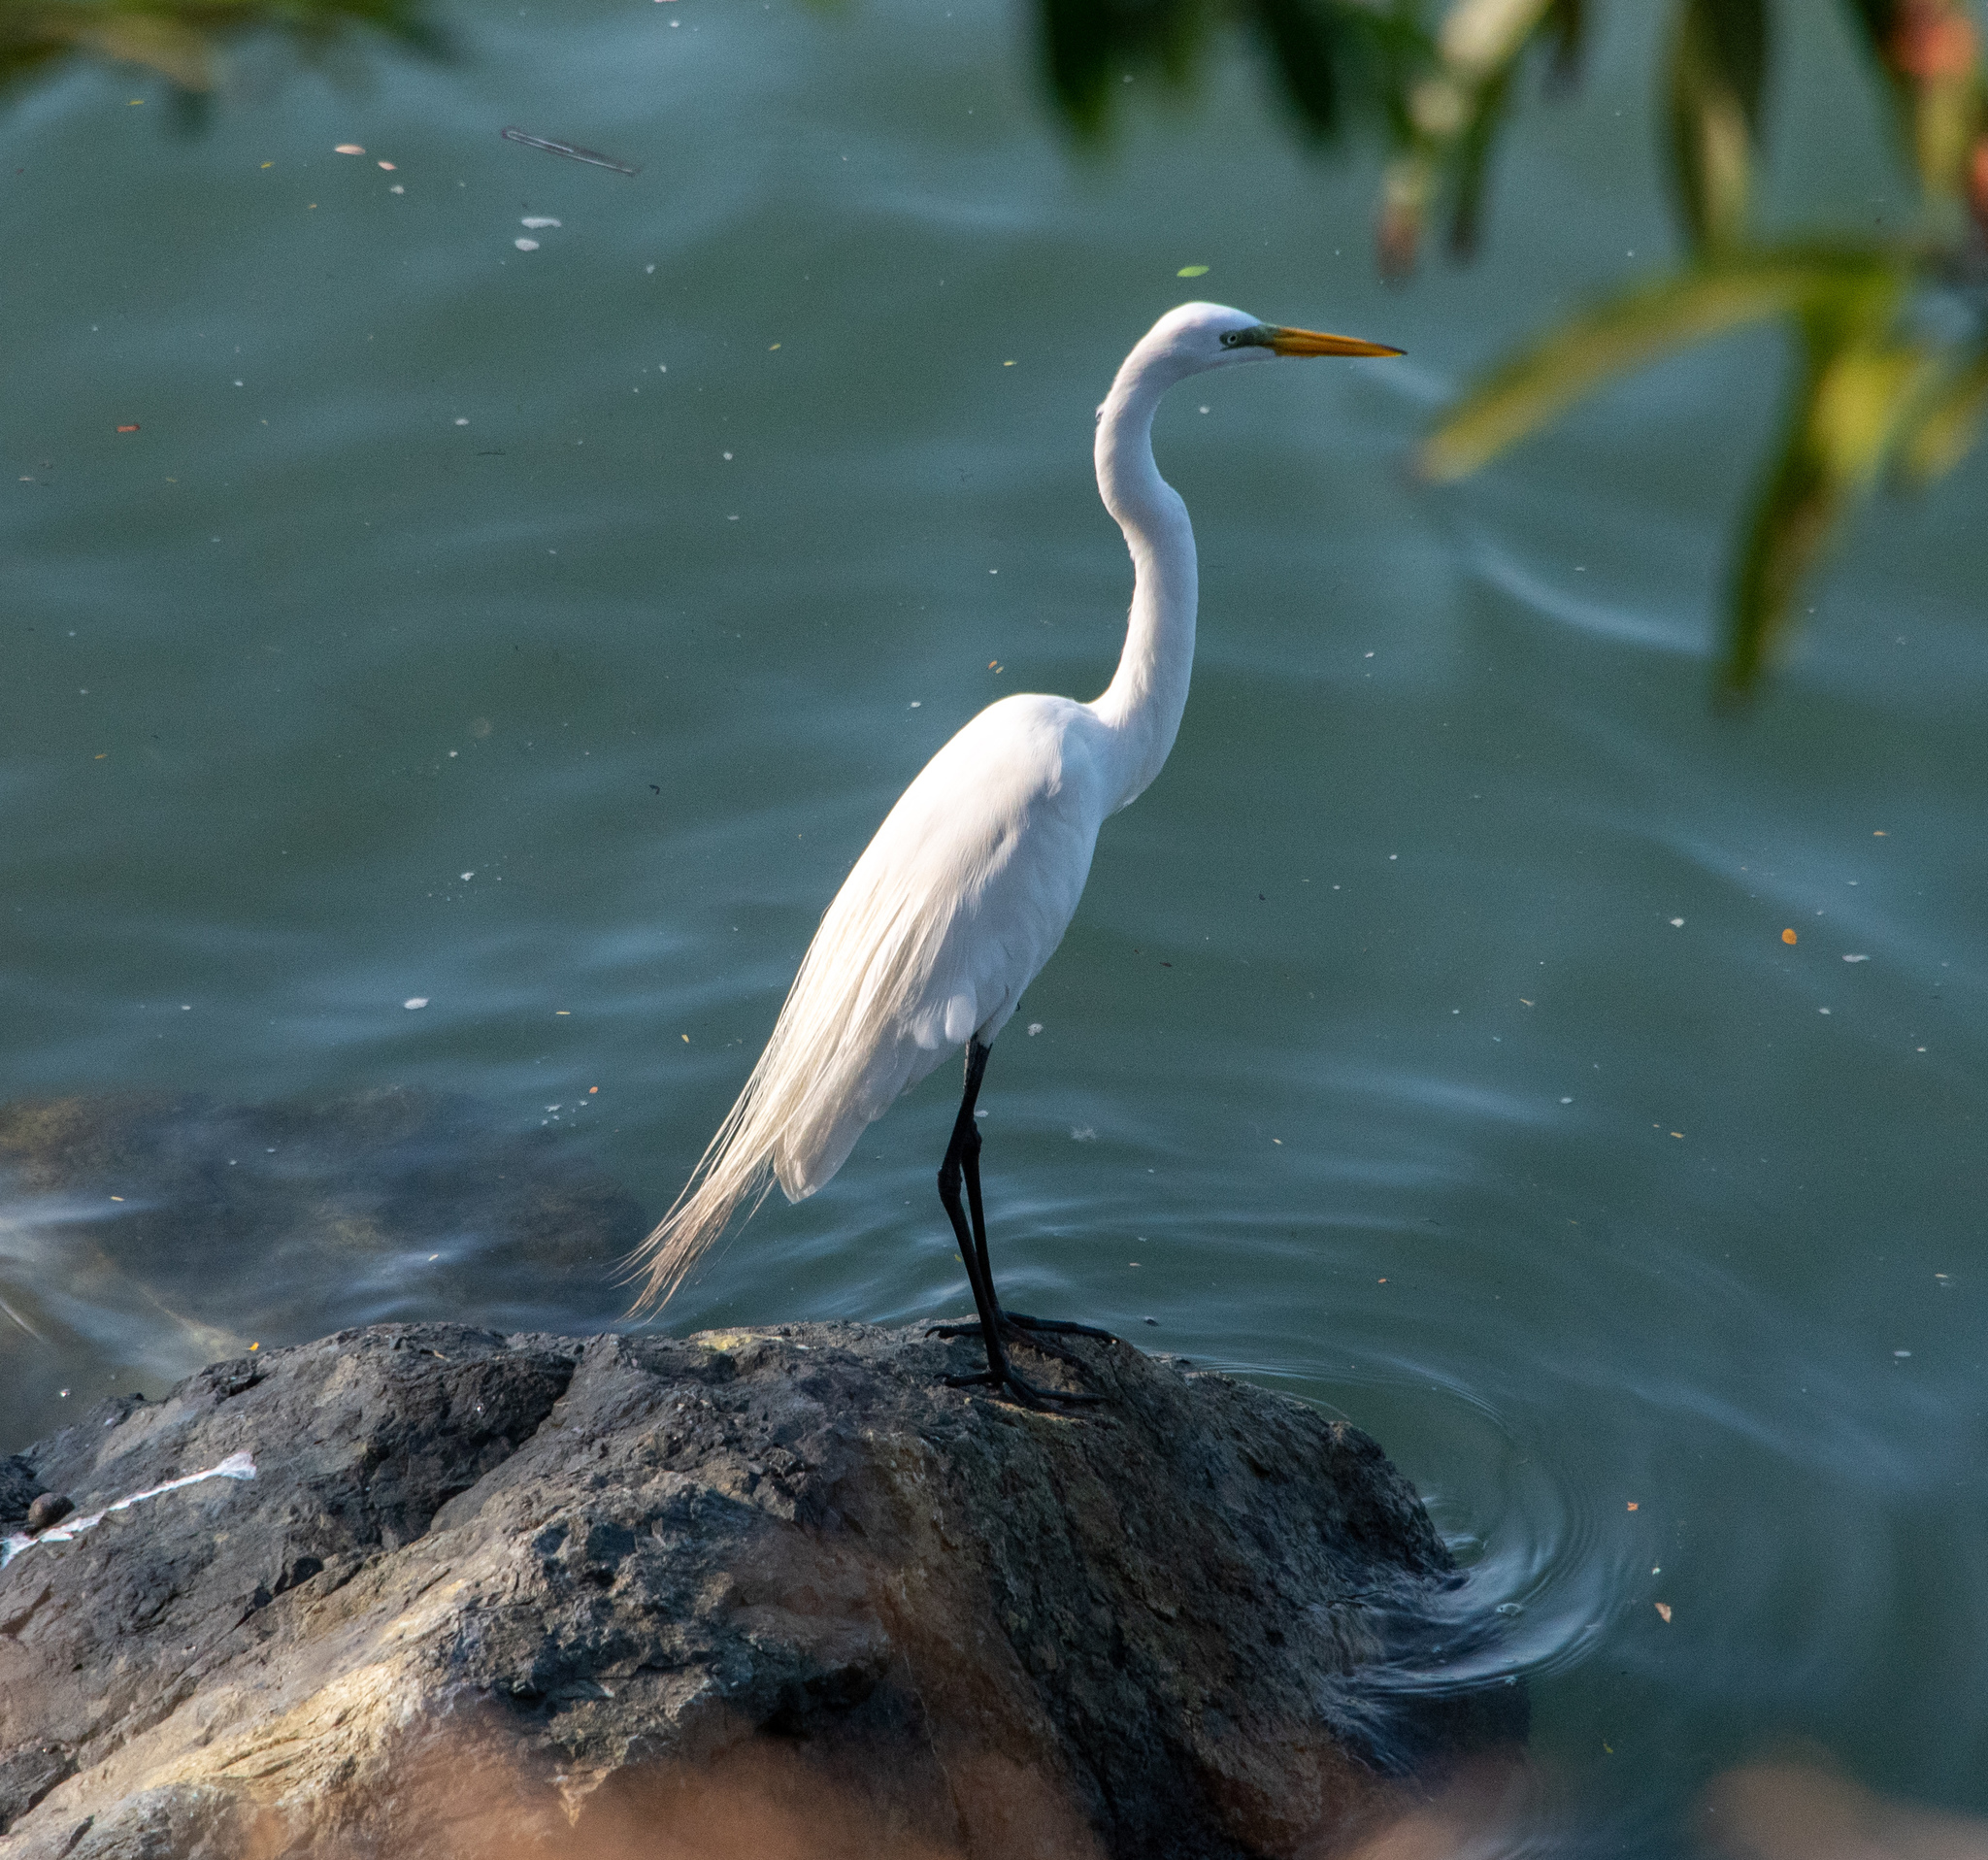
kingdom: Animalia
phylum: Chordata
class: Aves
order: Pelecaniformes
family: Ardeidae
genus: Ardea
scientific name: Ardea alba
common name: Great egret
